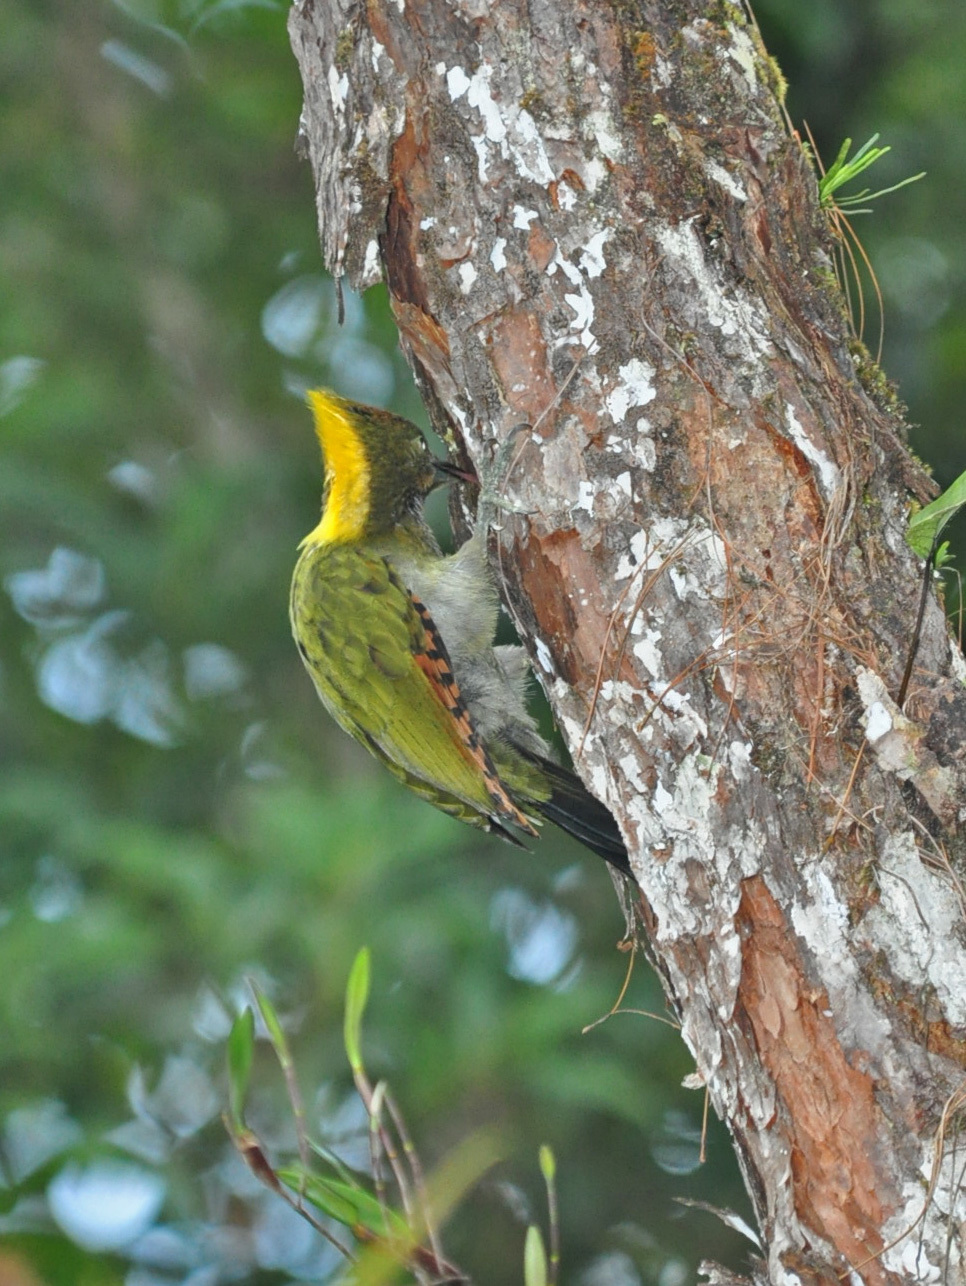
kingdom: Animalia
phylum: Chordata
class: Aves
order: Piciformes
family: Picidae
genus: Chrysophlegma
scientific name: Chrysophlegma flavinucha
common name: Greater yellownape
